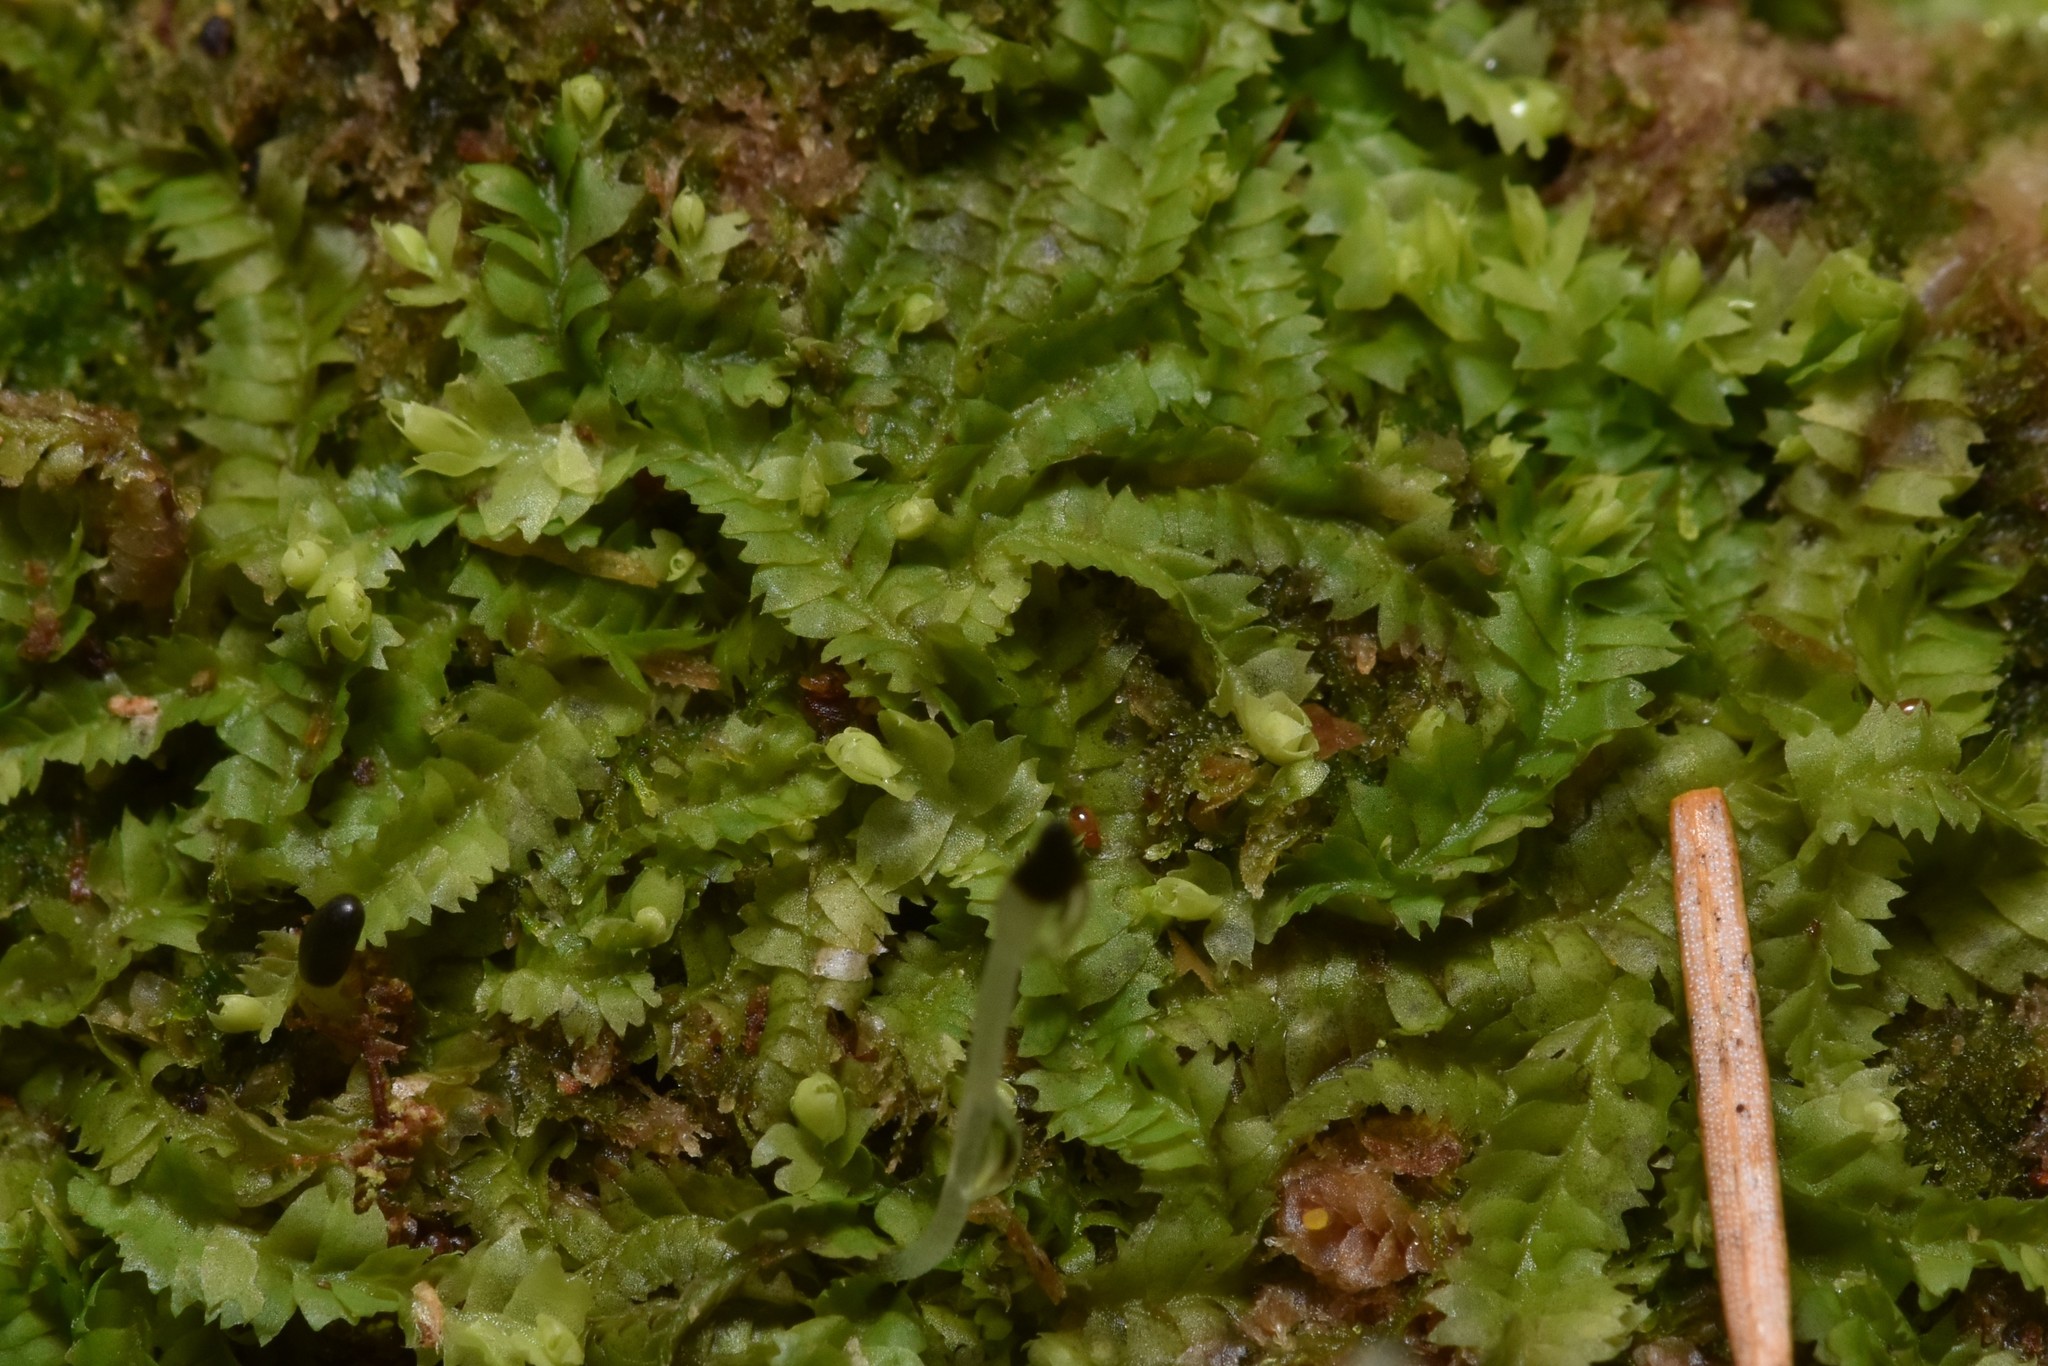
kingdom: Plantae
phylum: Marchantiophyta
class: Jungermanniopsida
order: Jungermanniales
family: Geocalycaceae
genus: Geocalyx
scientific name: Geocalyx graveolens
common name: Turps pouchwort
